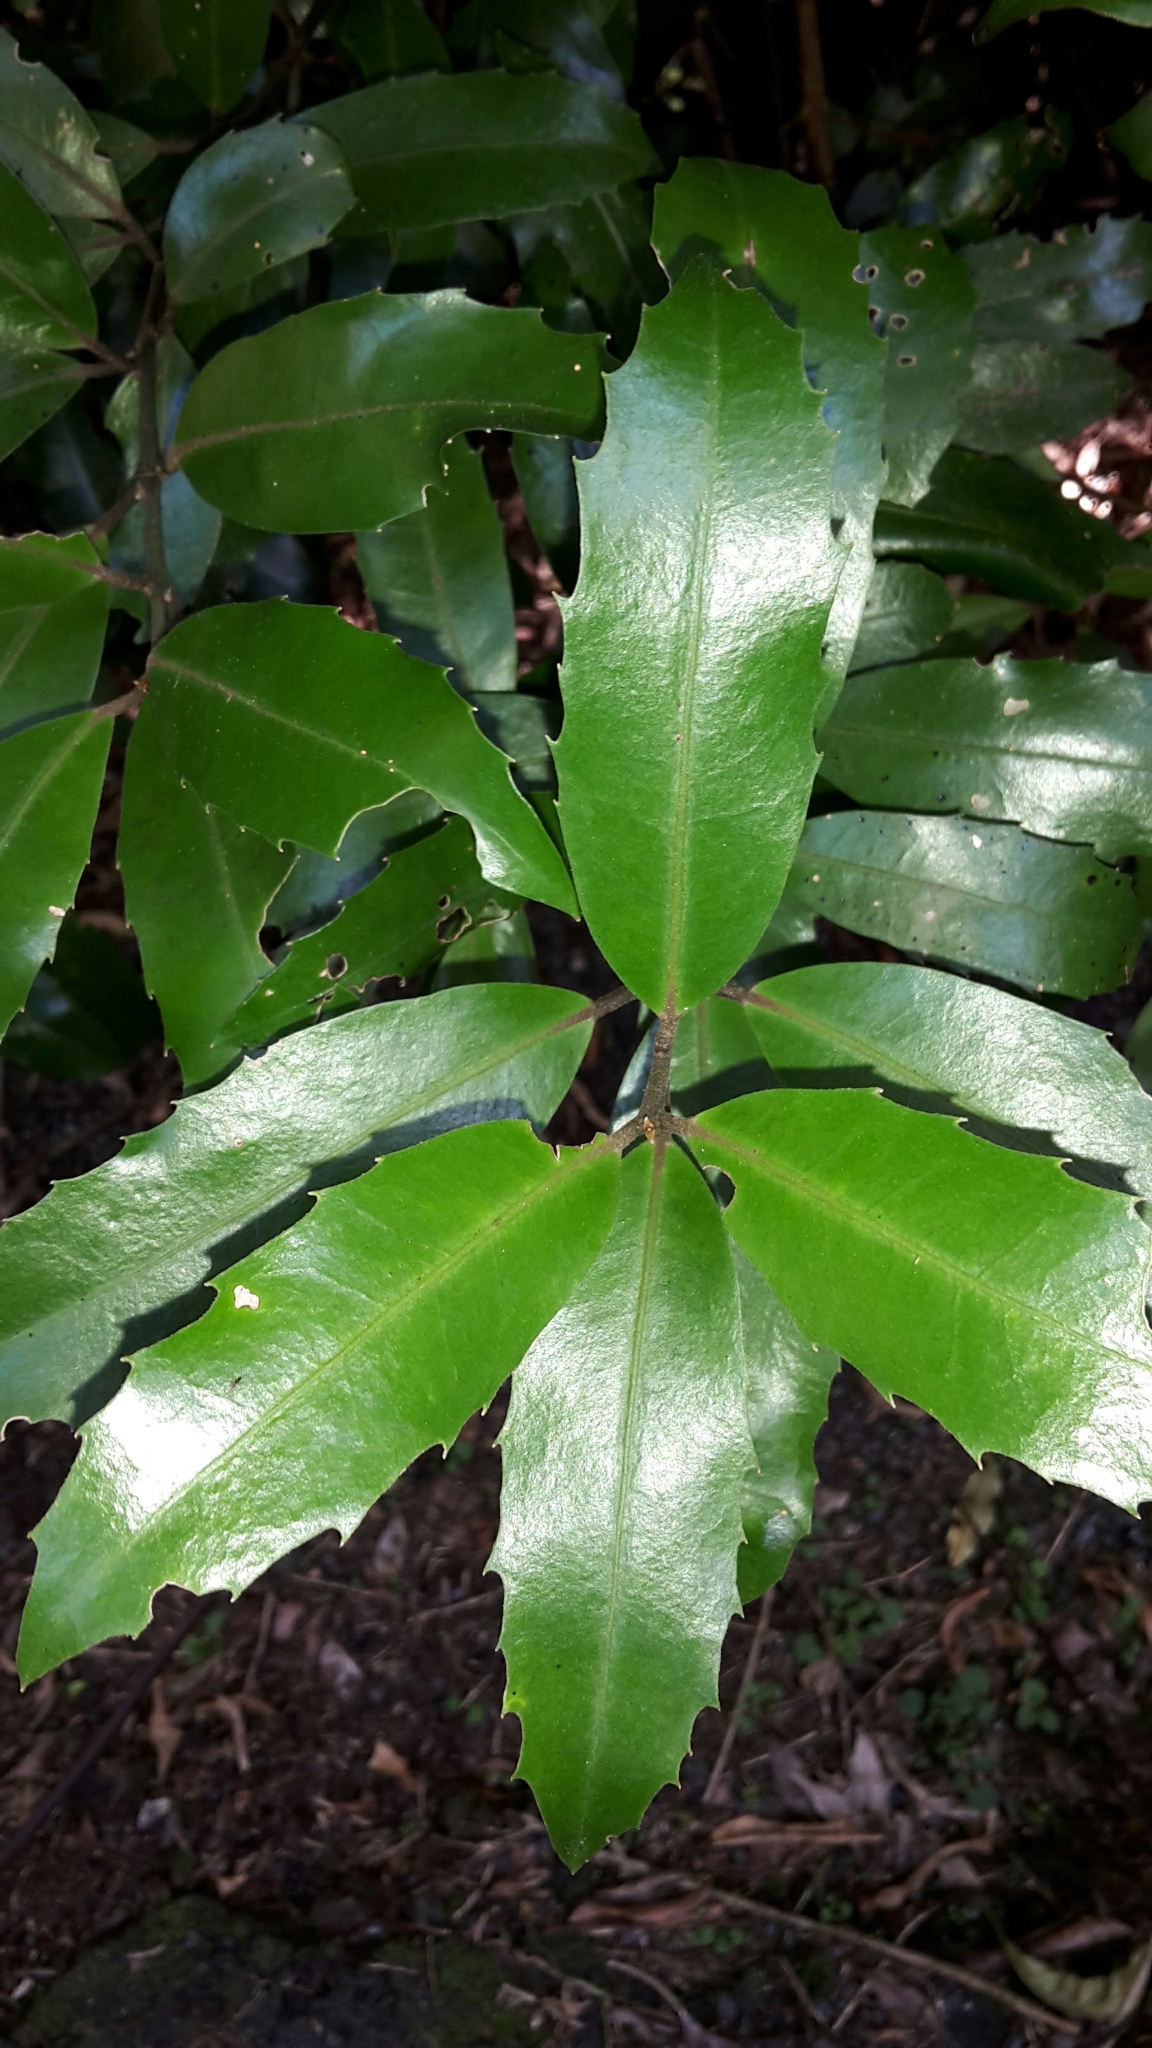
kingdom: Plantae
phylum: Tracheophyta
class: Magnoliopsida
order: Laurales
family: Monimiaceae
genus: Hedycarya
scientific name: Hedycarya arborea
